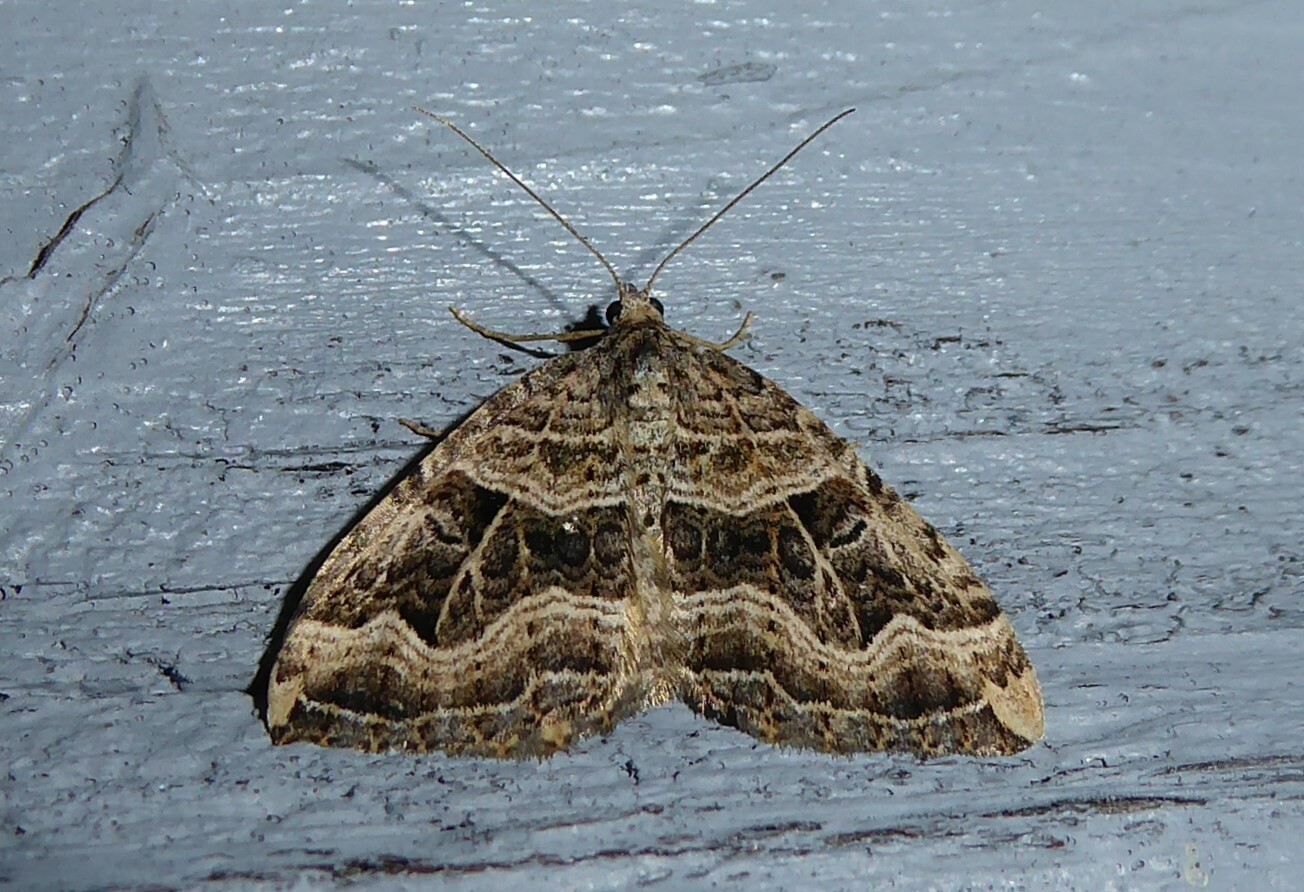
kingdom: Animalia
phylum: Arthropoda
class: Insecta
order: Lepidoptera
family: Geometridae
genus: Xanthorhoe
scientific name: Xanthorhoe semifissata
